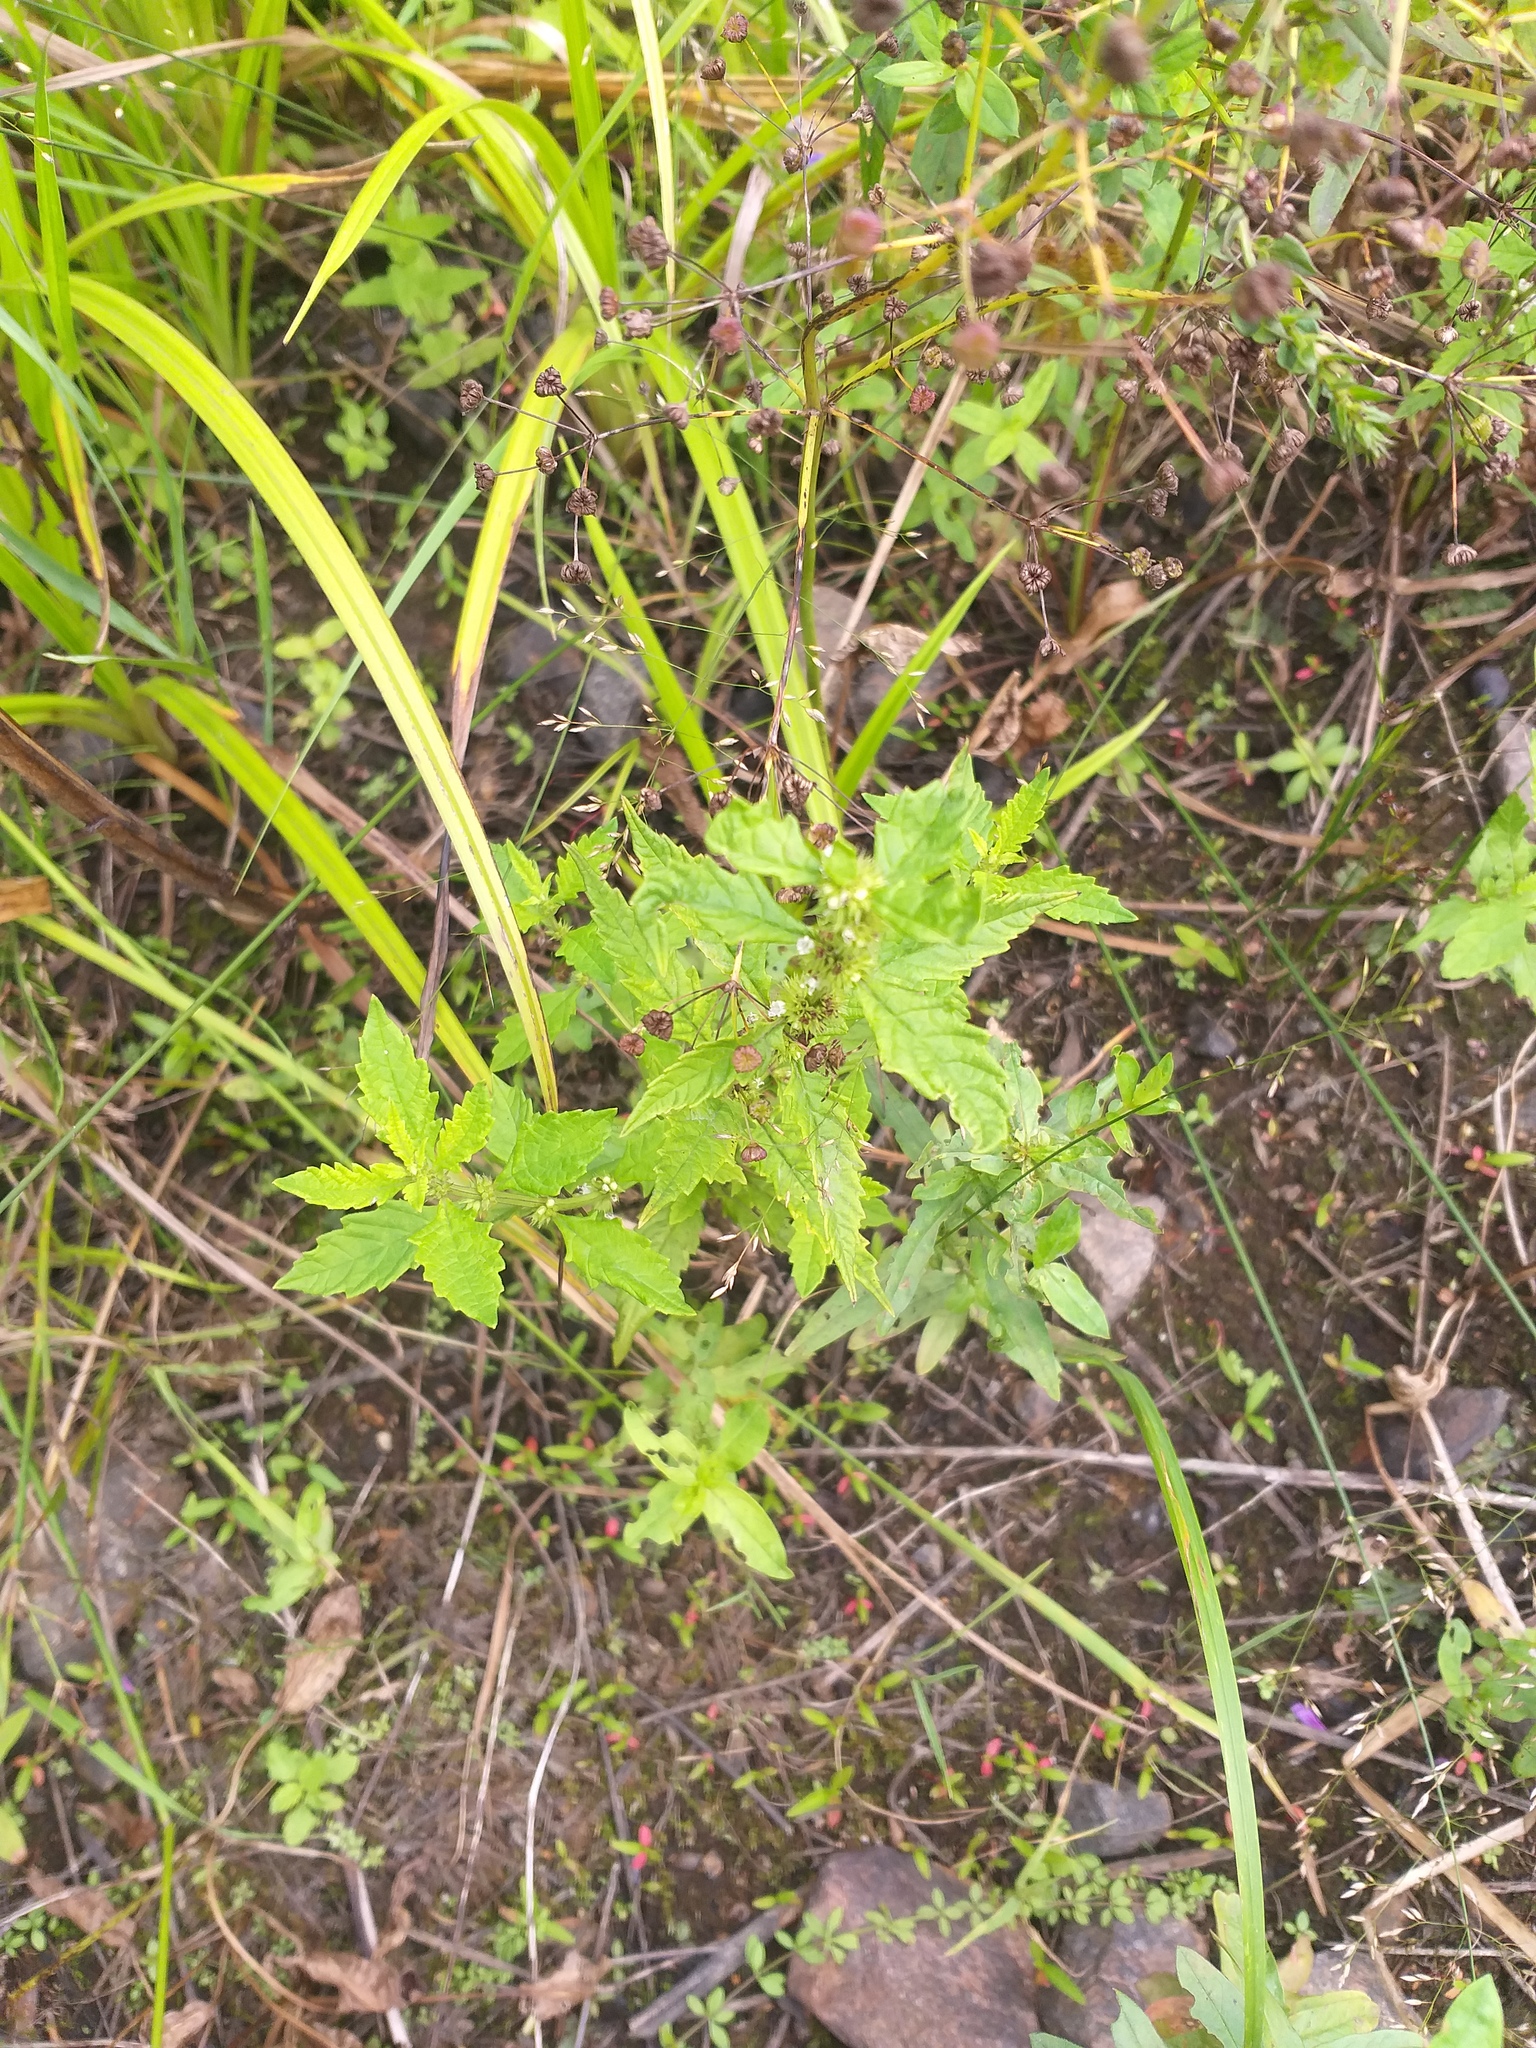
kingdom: Plantae
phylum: Tracheophyta
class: Magnoliopsida
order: Lamiales
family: Lamiaceae
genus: Lycopus
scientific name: Lycopus europaeus
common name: European bugleweed
